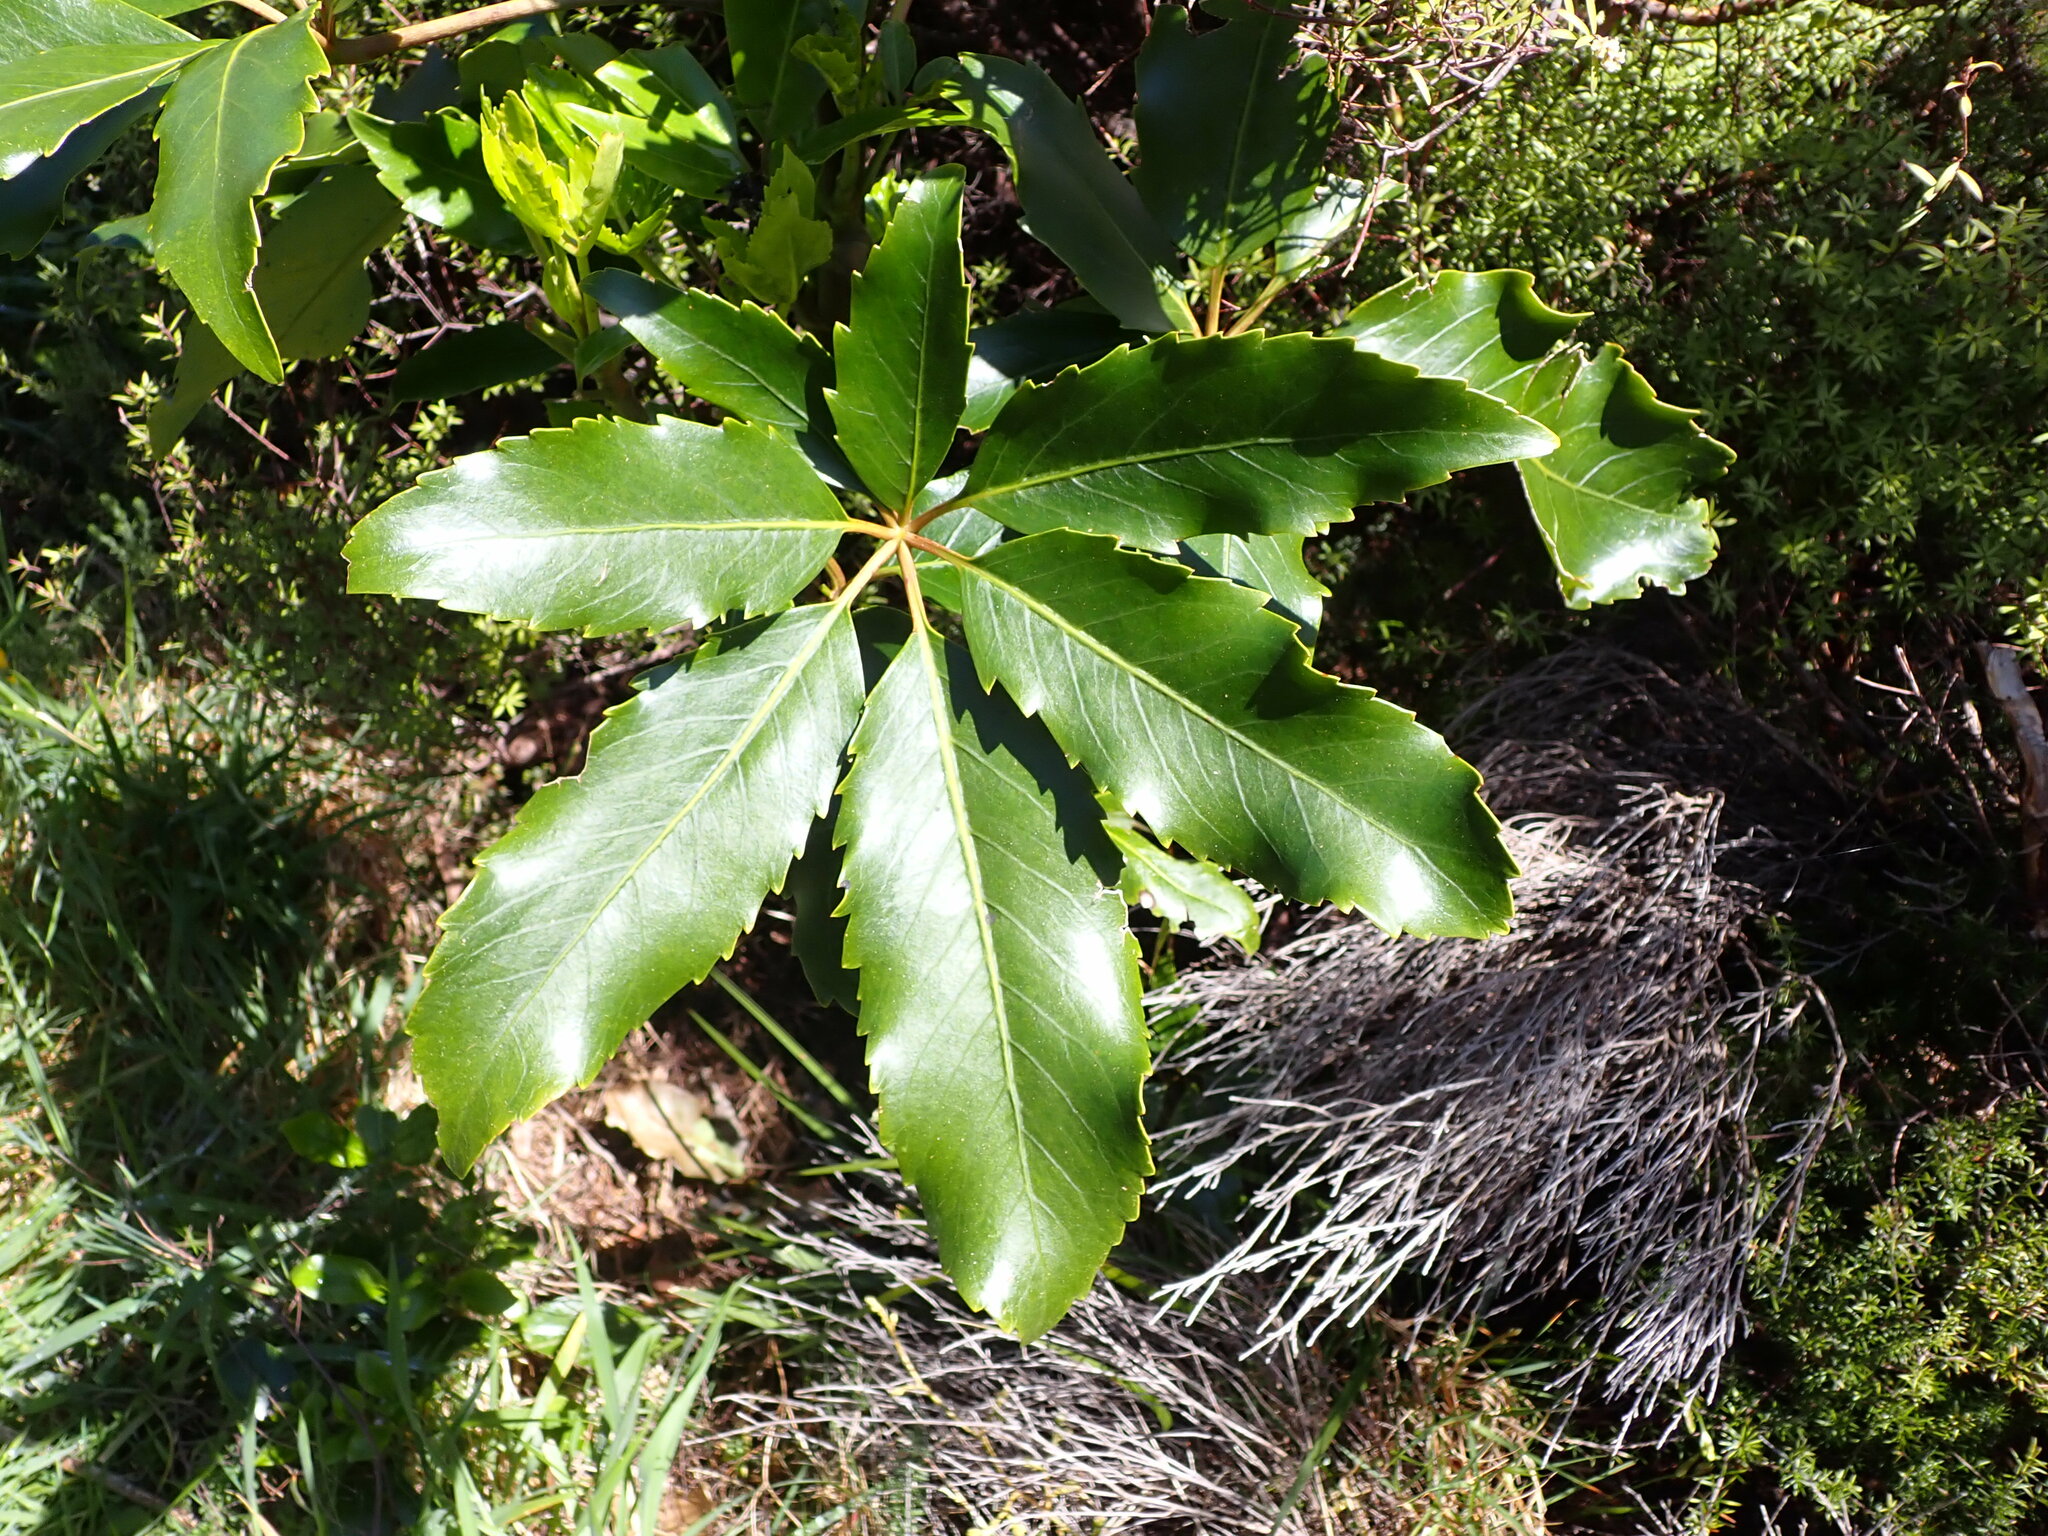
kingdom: Plantae
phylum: Tracheophyta
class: Magnoliopsida
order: Apiales
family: Araliaceae
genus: Neopanax
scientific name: Neopanax arboreus
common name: Five-fingers
